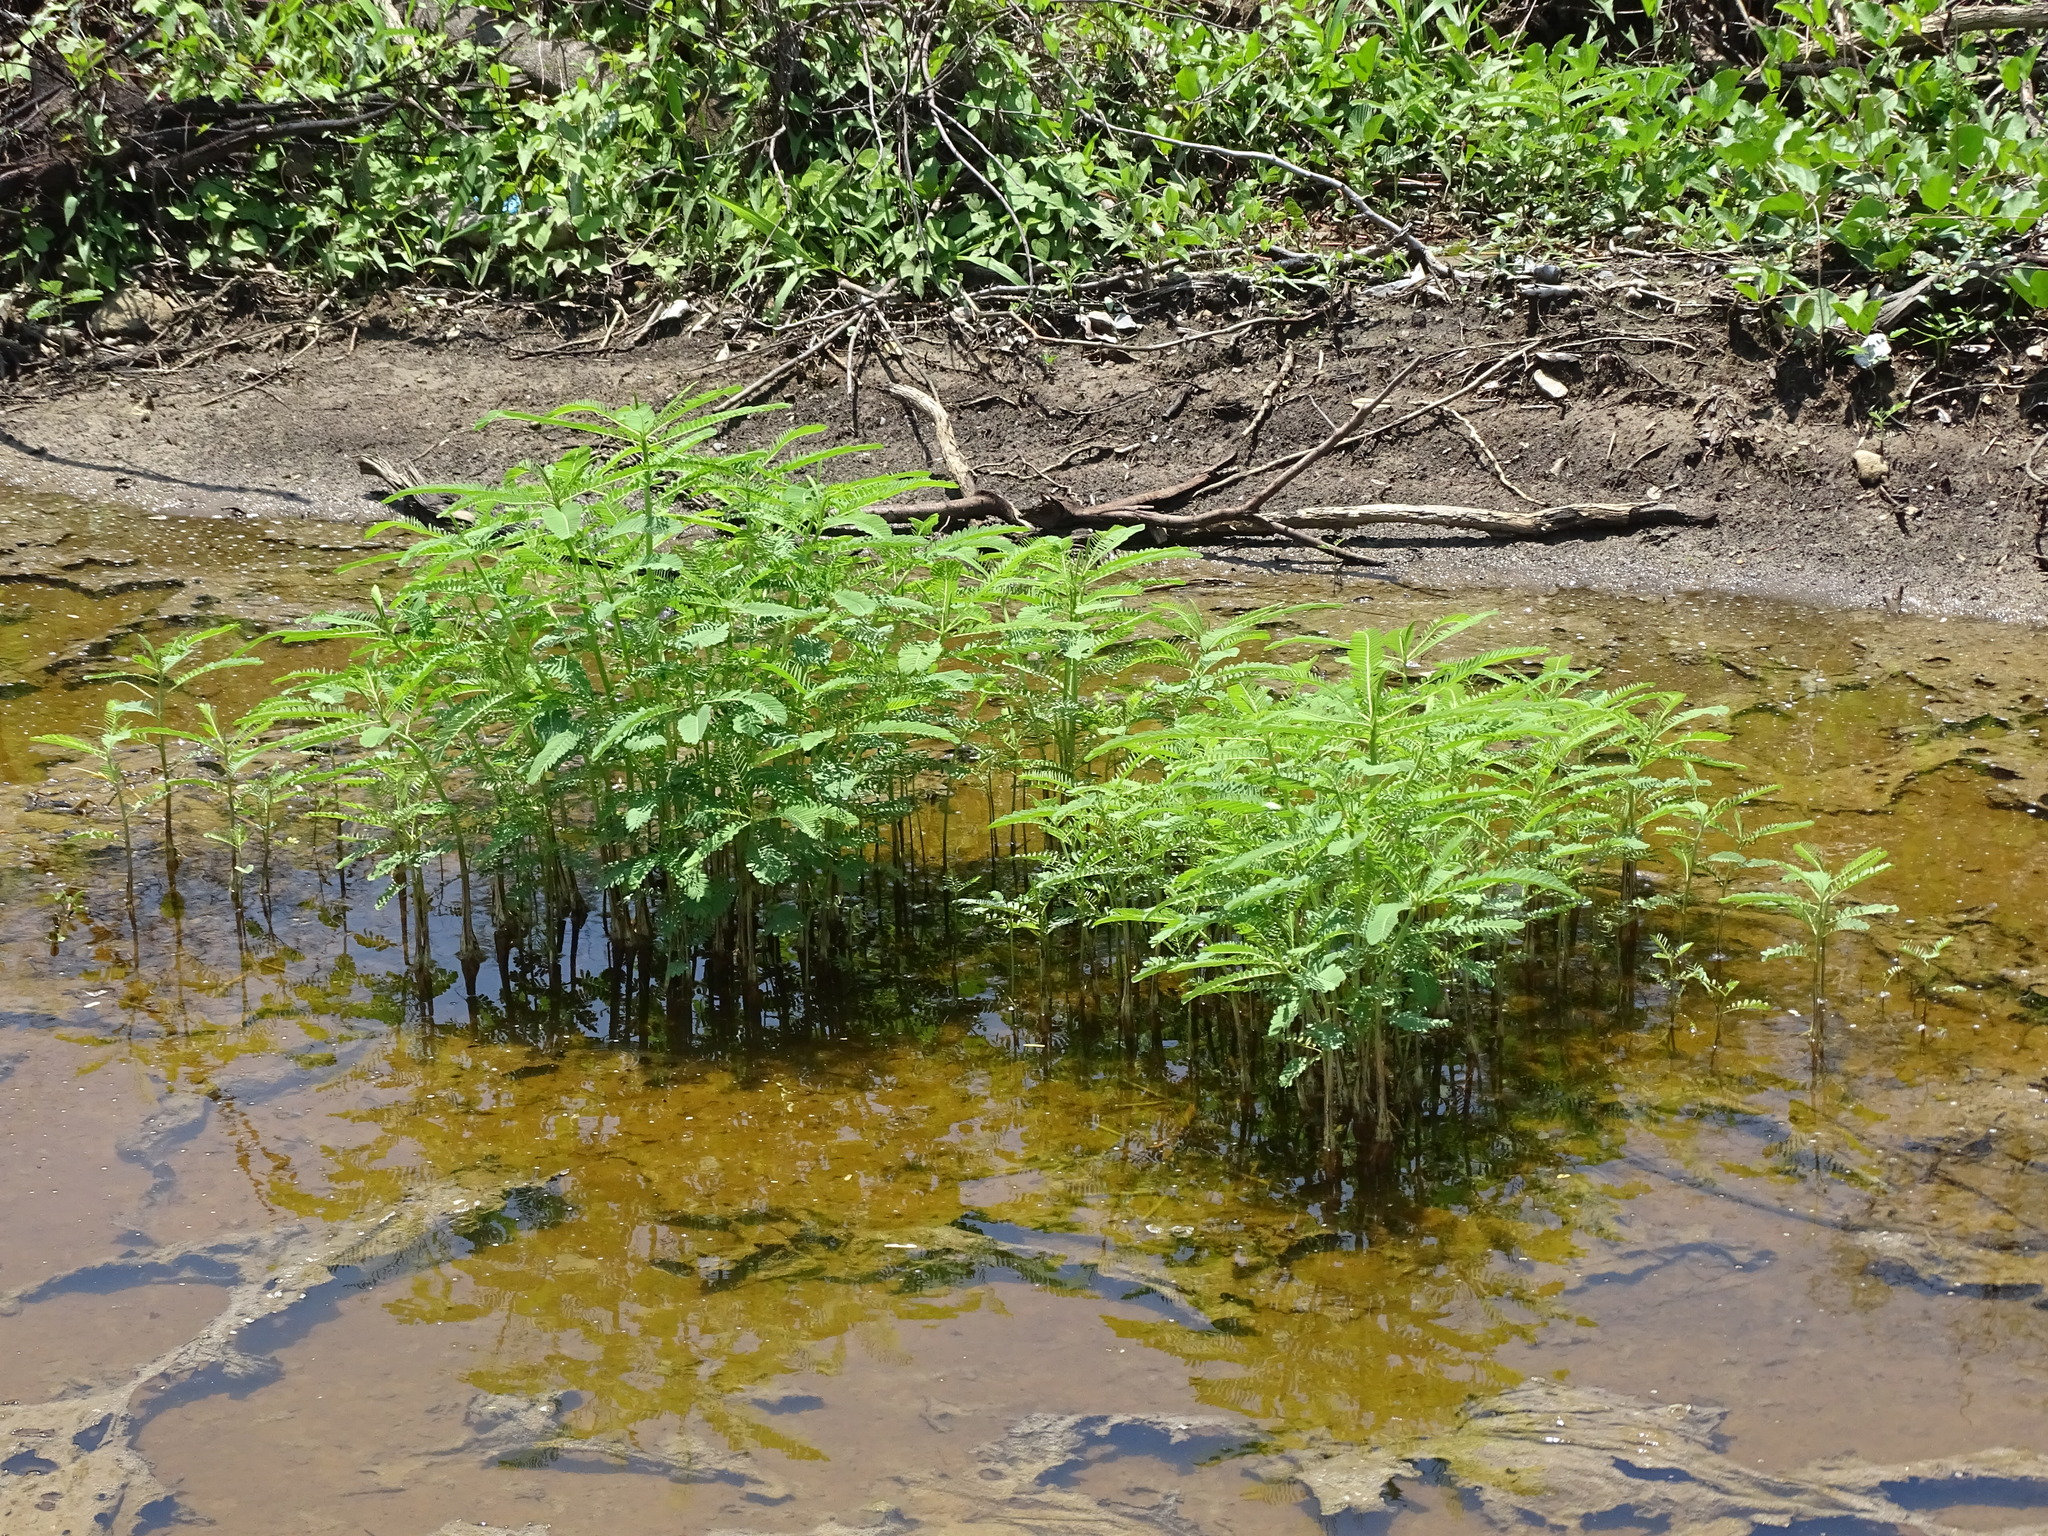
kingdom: Plantae
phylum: Tracheophyta
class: Magnoliopsida
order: Fabales
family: Fabaceae
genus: Sesbania
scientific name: Sesbania herbacea
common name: Bigpod sesbania
